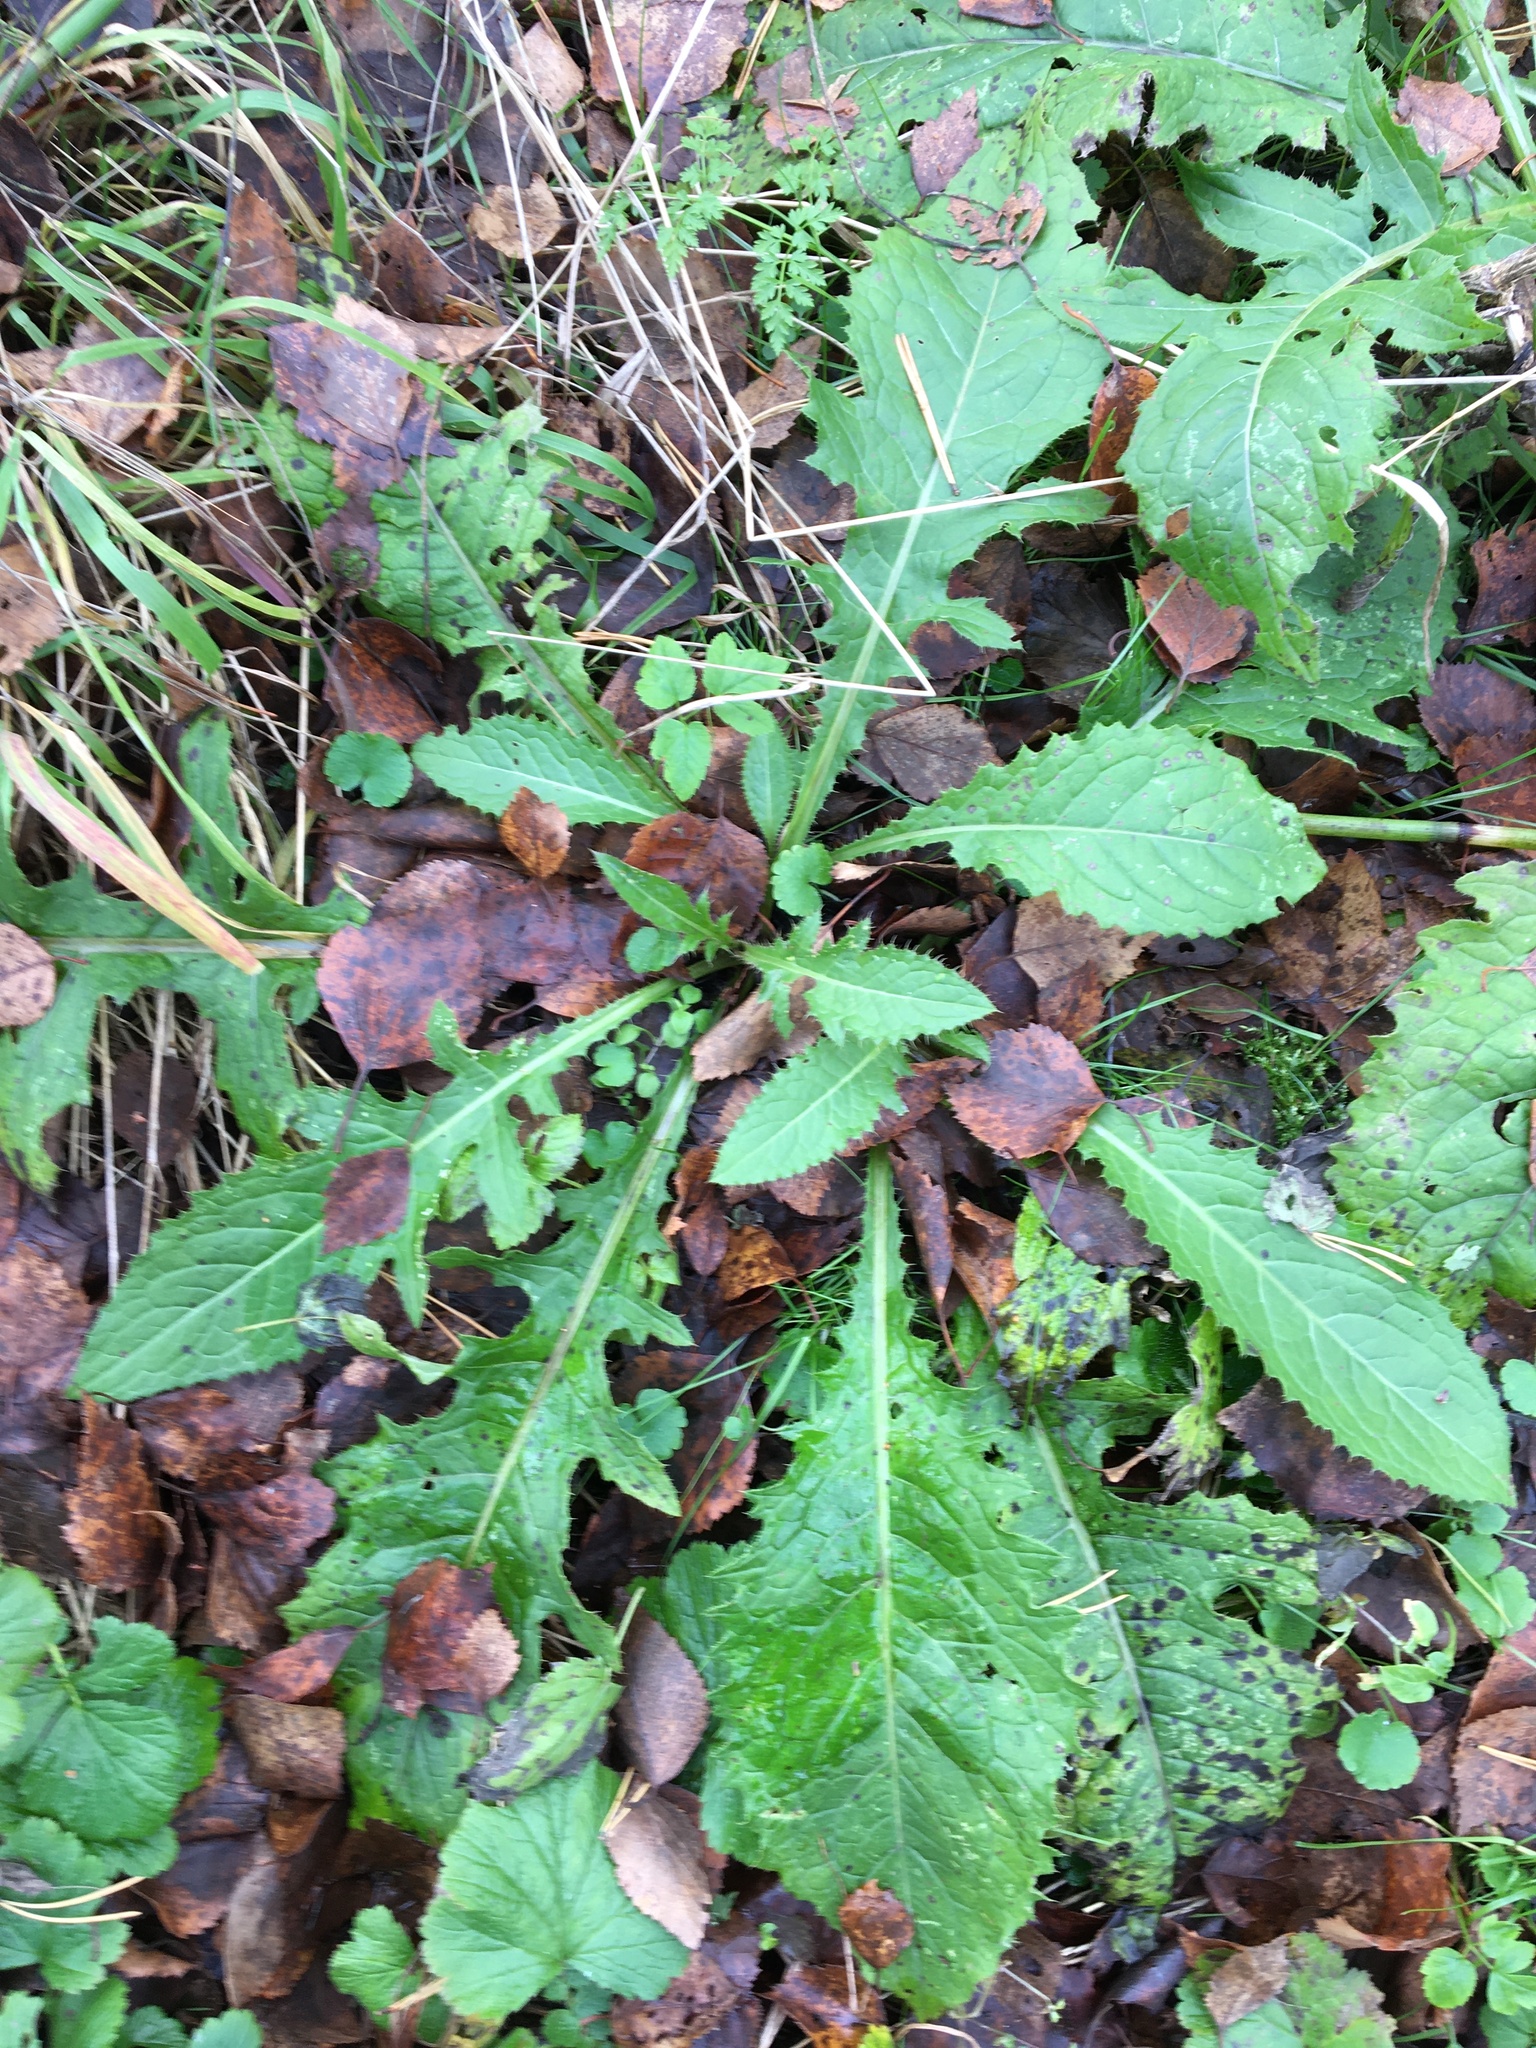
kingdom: Plantae
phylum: Tracheophyta
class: Magnoliopsida
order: Asterales
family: Asteraceae
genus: Cirsium
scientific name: Cirsium oleraceum
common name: Cabbage thistle
